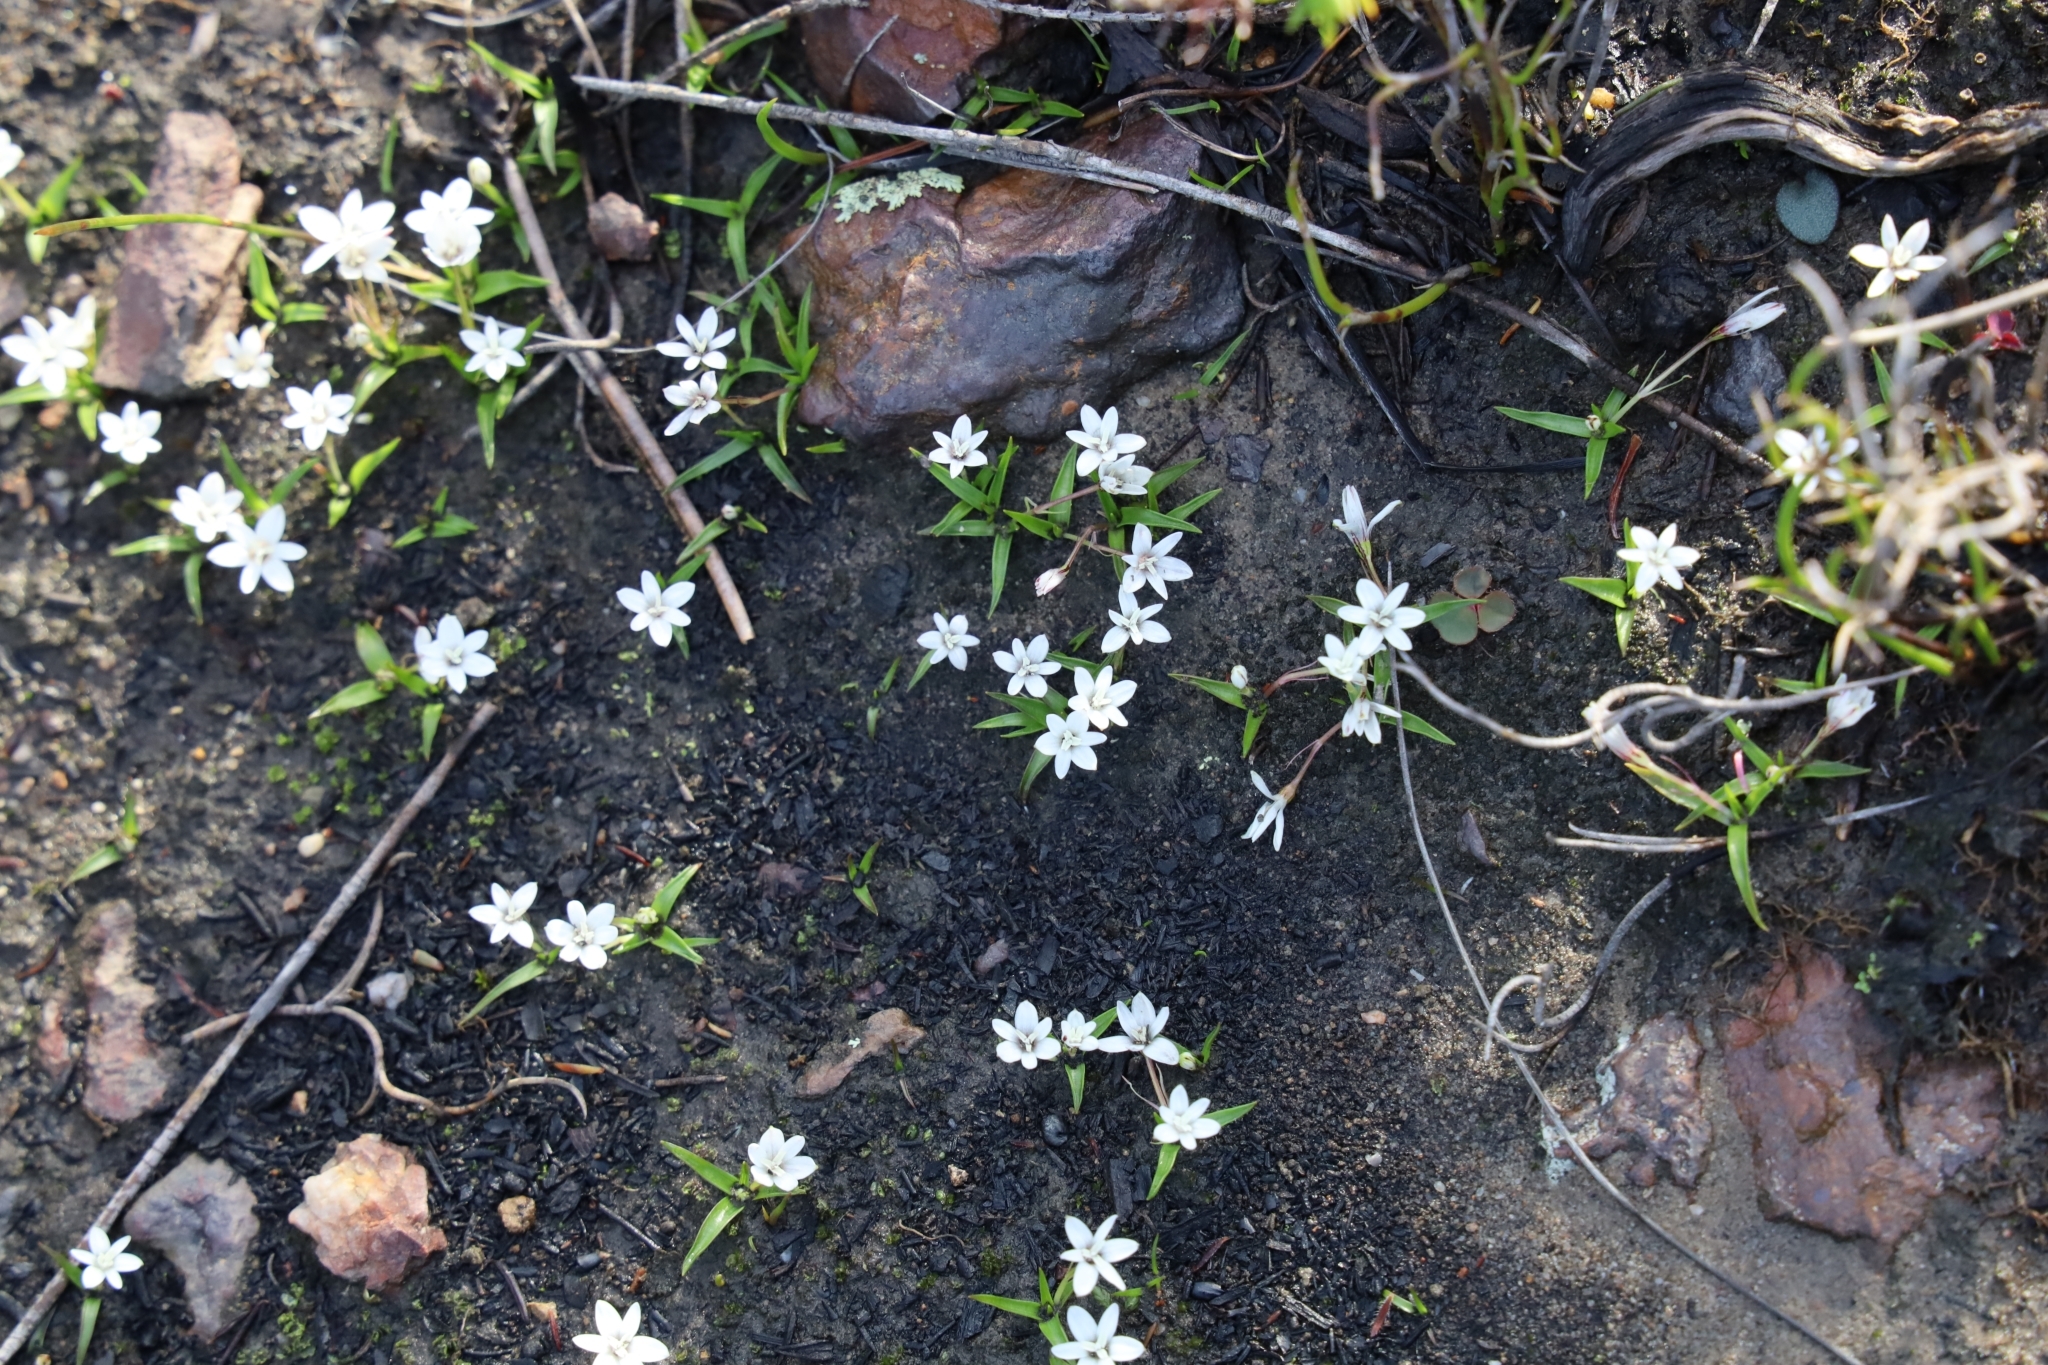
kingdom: Plantae
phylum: Tracheophyta
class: Liliopsida
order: Asparagales
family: Hypoxidaceae
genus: Pauridia
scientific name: Pauridia minuta
